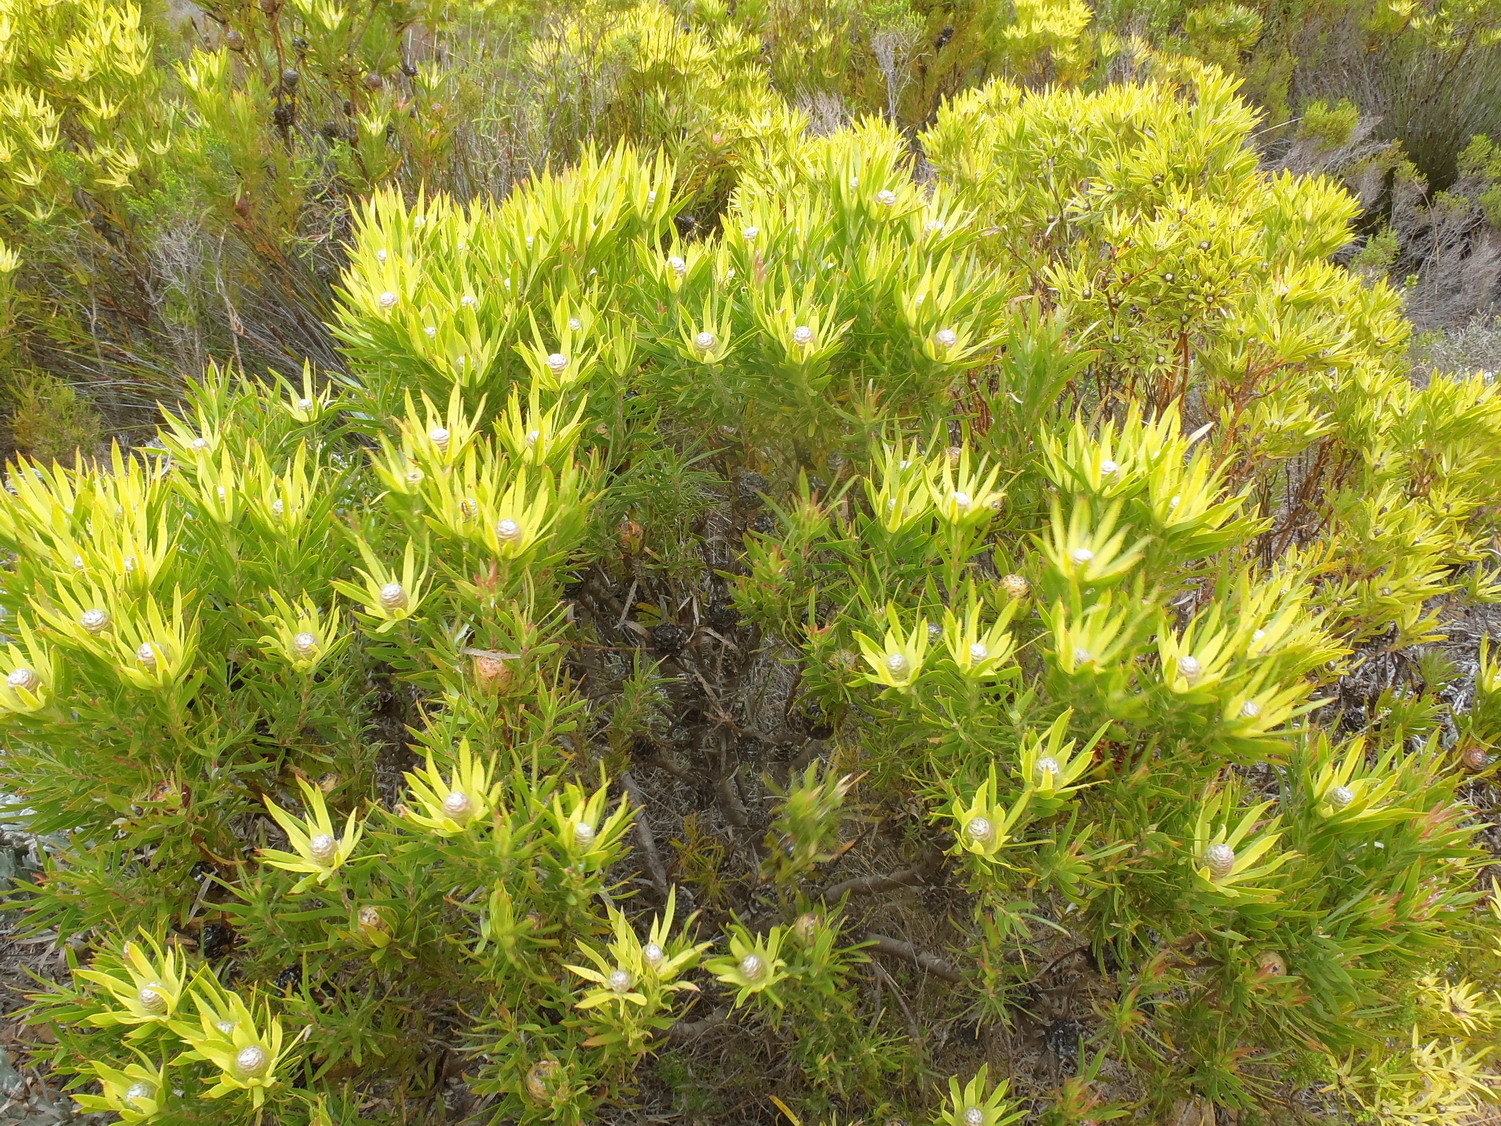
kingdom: Plantae
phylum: Tracheophyta
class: Magnoliopsida
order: Proteales
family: Proteaceae
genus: Leucadendron
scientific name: Leucadendron xanthoconus
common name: Sickle-leaf conebush
